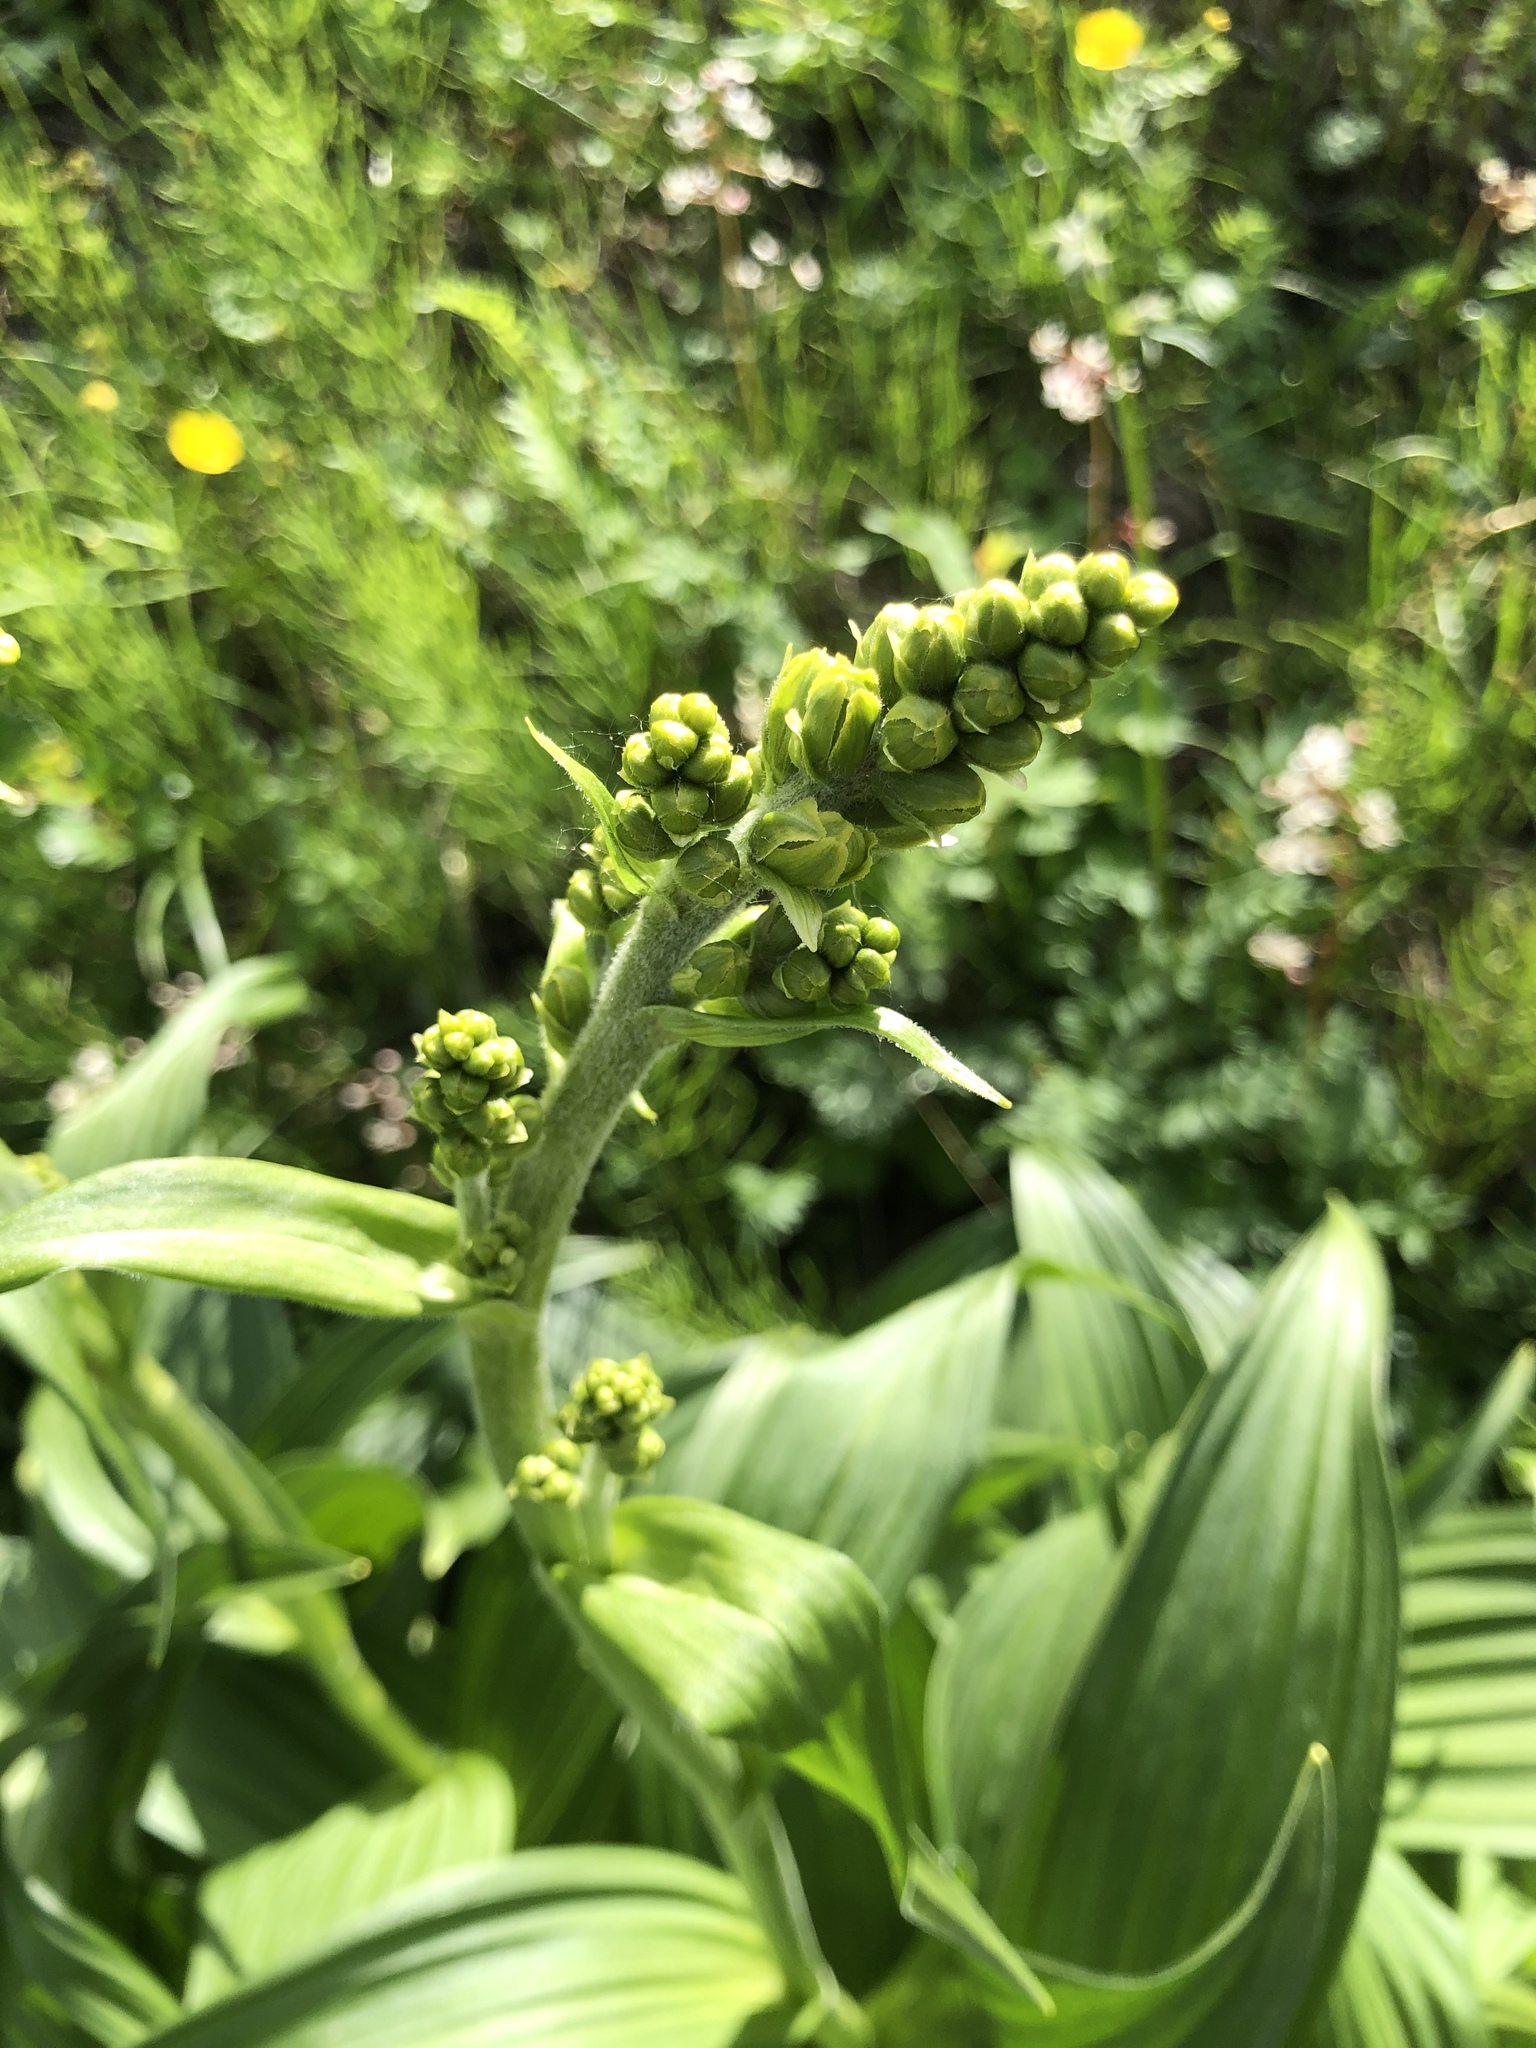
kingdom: Plantae
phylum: Tracheophyta
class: Liliopsida
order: Liliales
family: Melanthiaceae
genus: Veratrum
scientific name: Veratrum lobelianum
